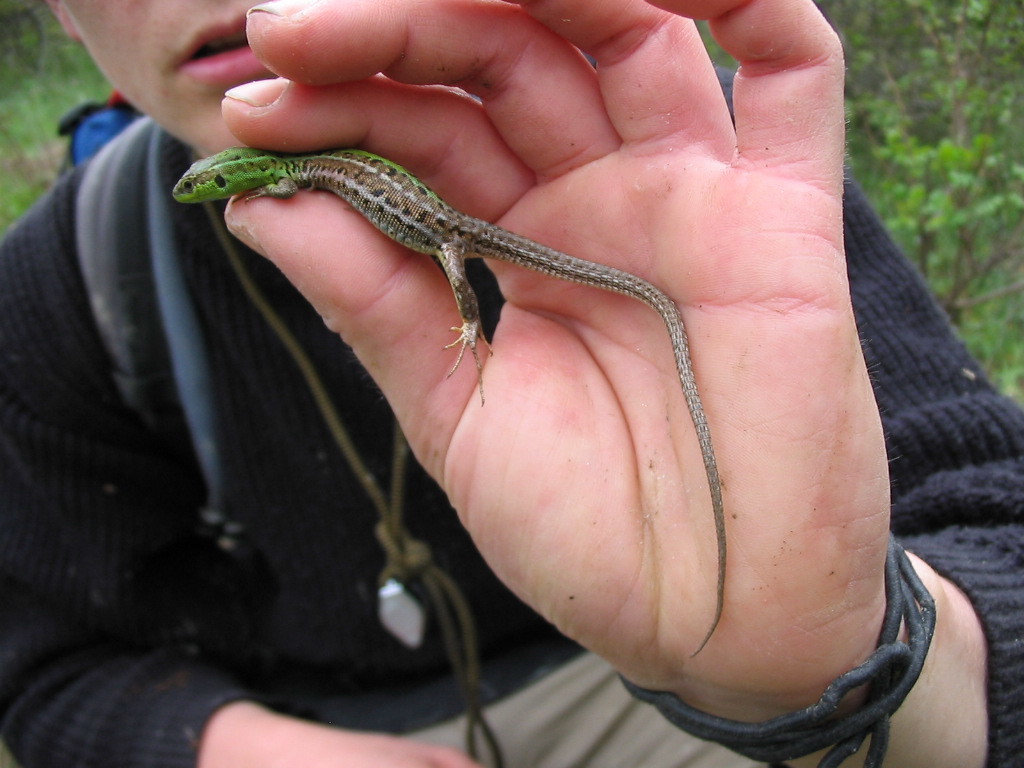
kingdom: Animalia
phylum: Chordata
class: Squamata
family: Lacertidae
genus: Podarcis
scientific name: Podarcis tauricus
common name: Balkan wall lizard
